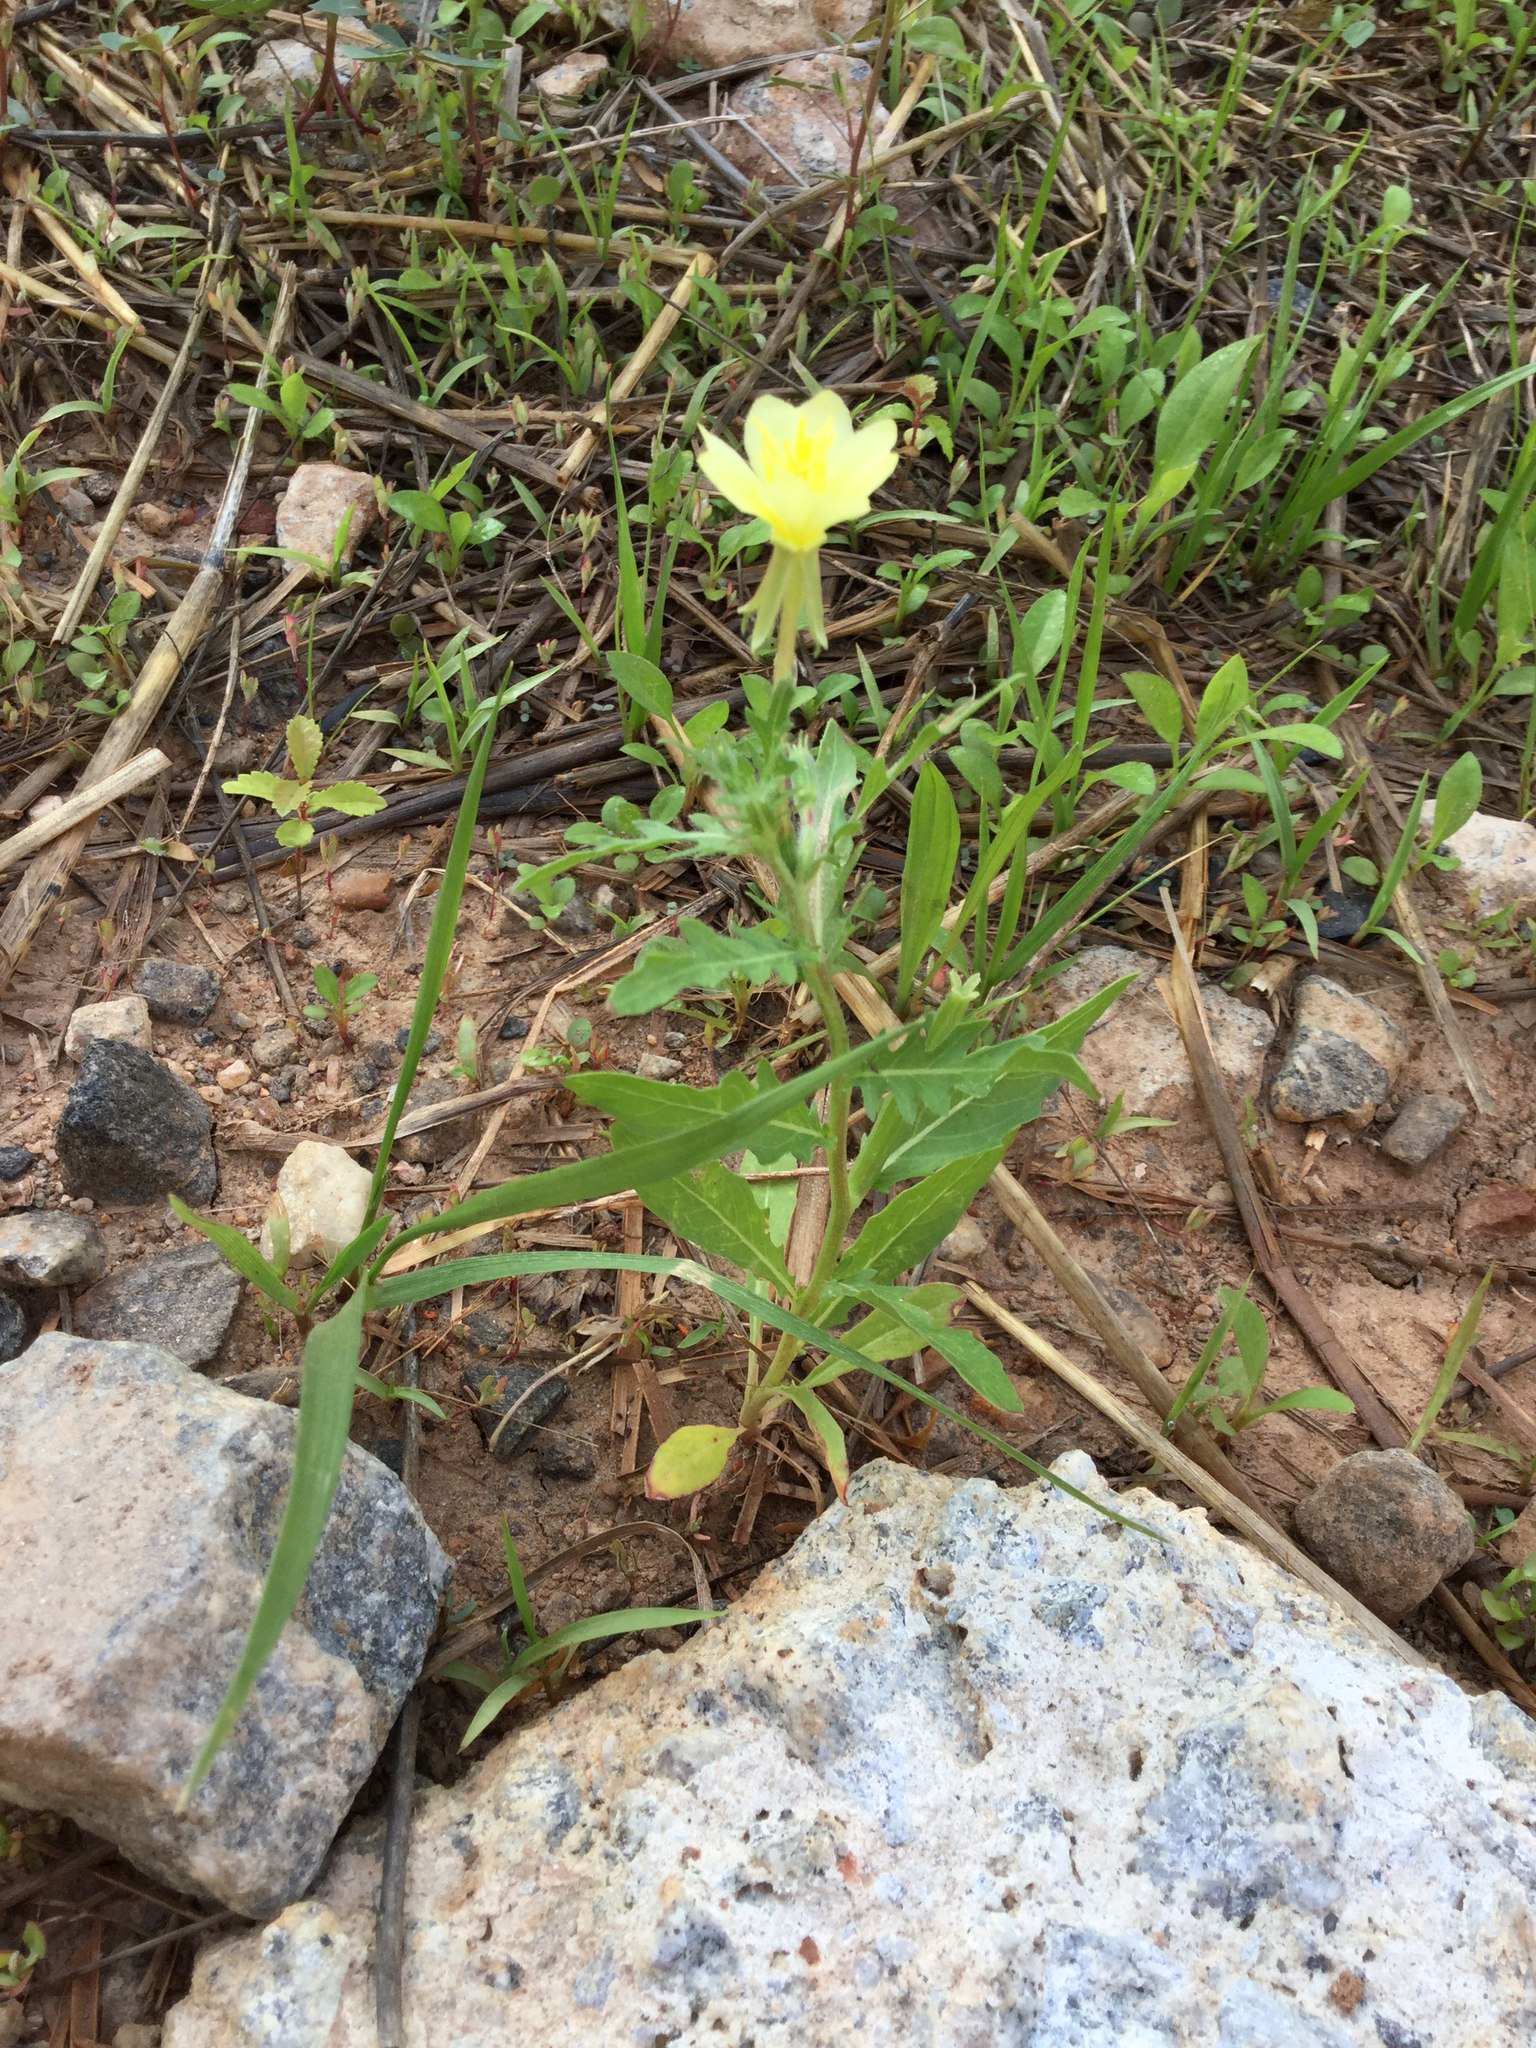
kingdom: Plantae
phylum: Tracheophyta
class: Magnoliopsida
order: Myrtales
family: Onagraceae
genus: Oenothera
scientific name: Oenothera laciniata
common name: Cut-leaved evening-primrose
